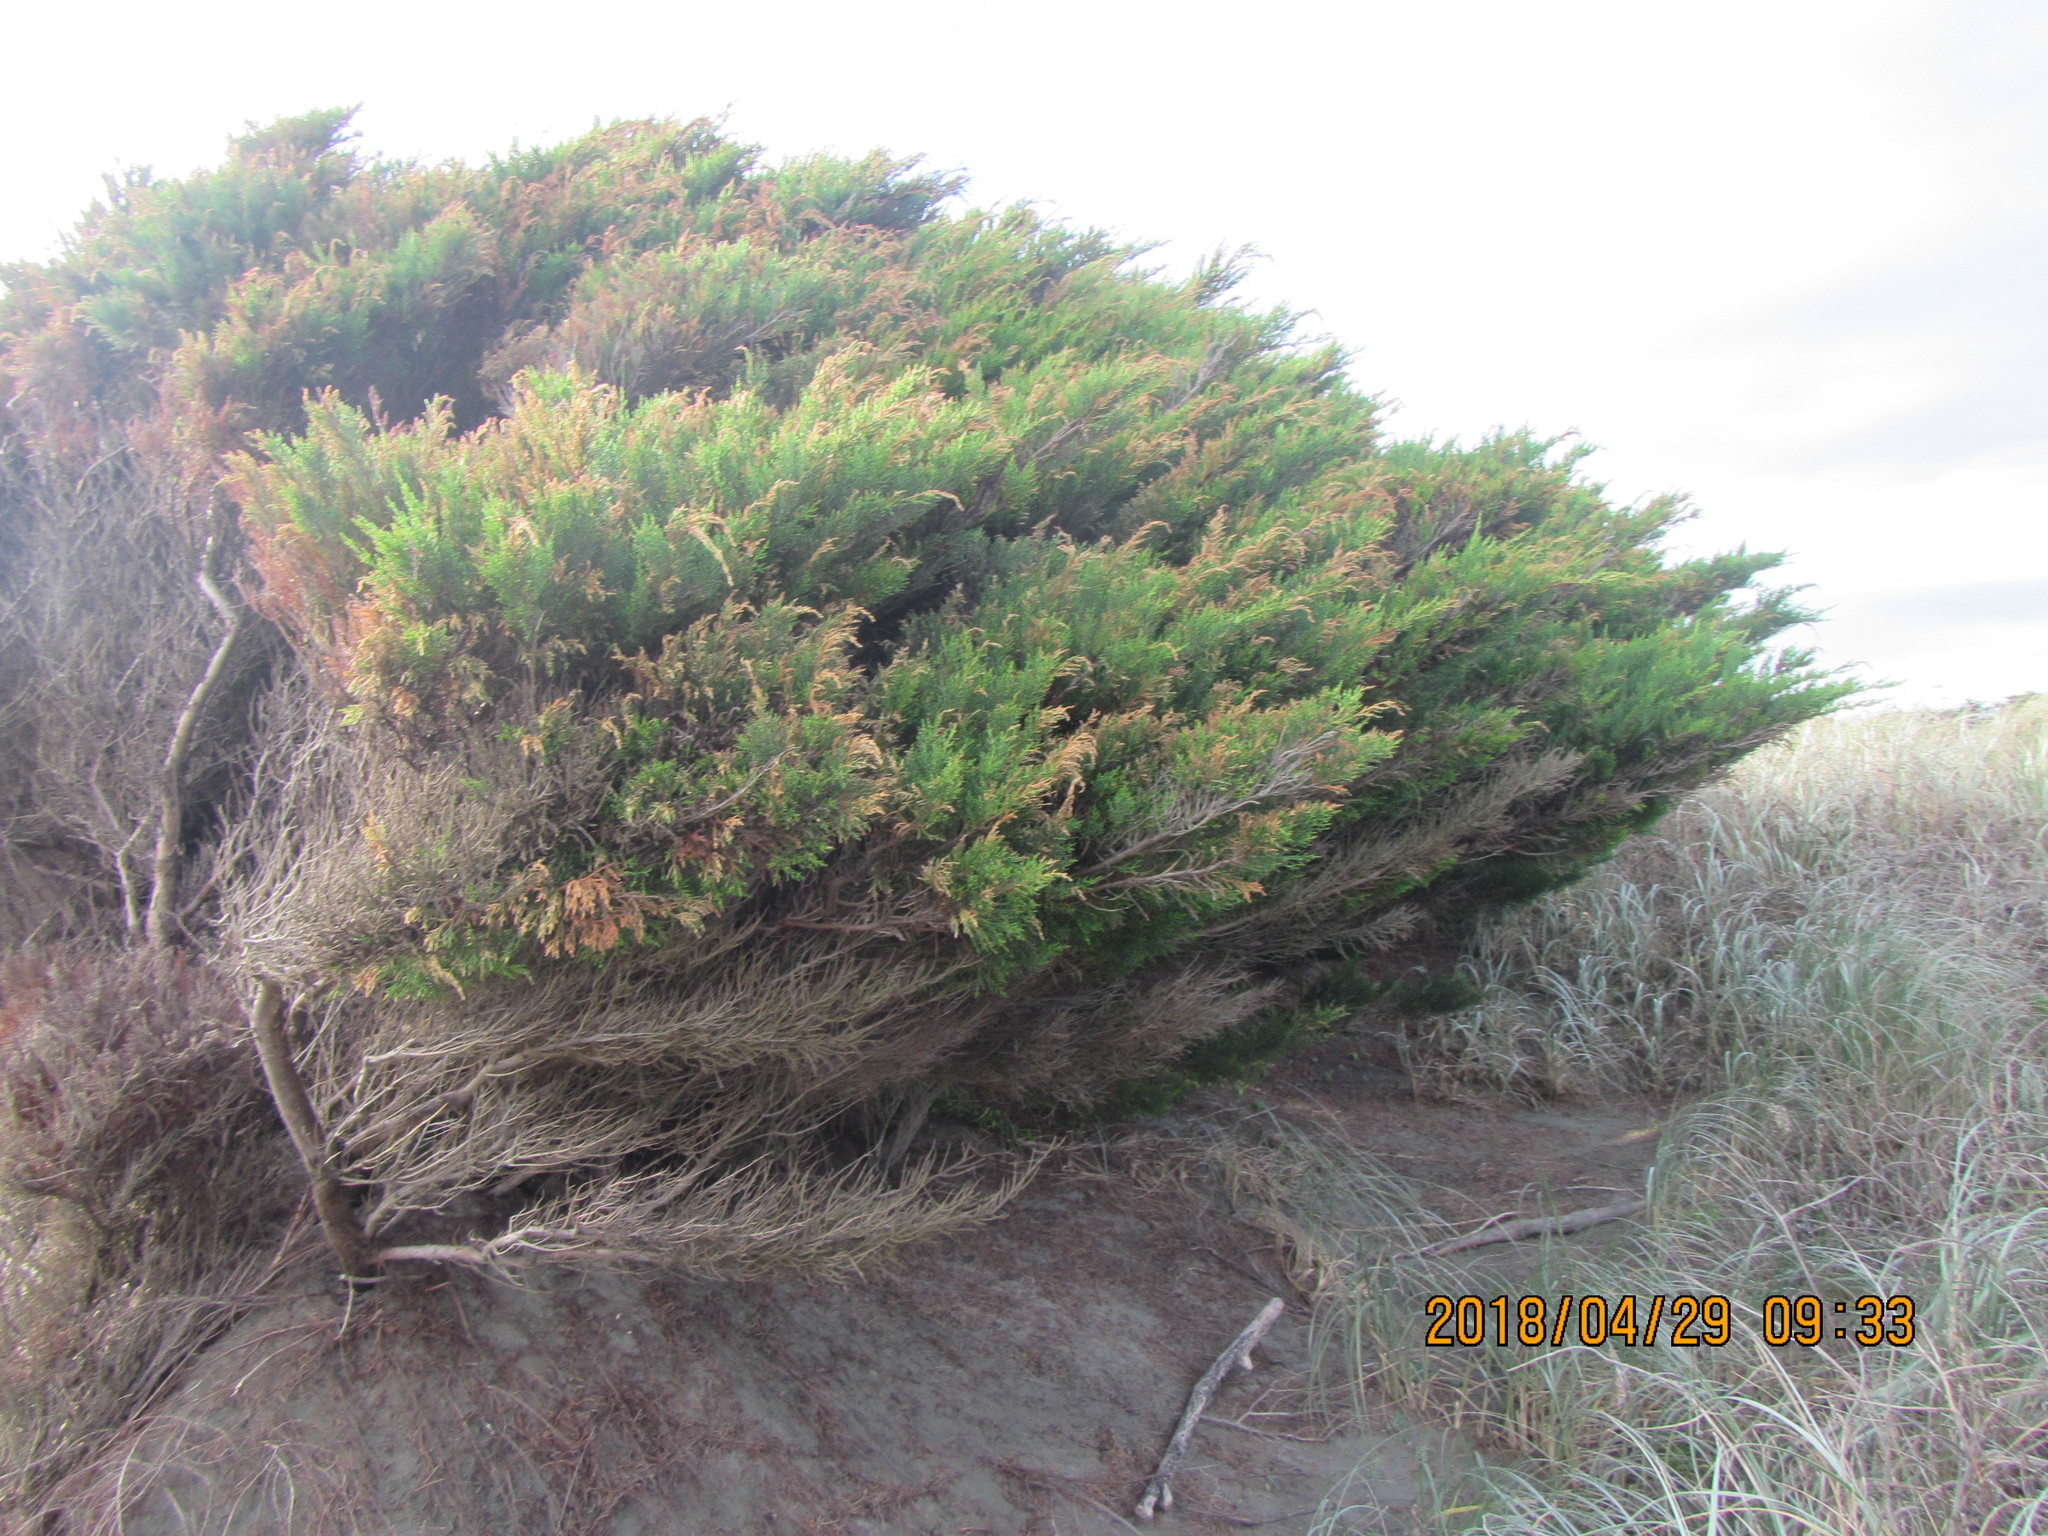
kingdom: Plantae
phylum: Tracheophyta
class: Pinopsida
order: Pinales
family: Cupressaceae
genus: Cupressus
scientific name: Cupressus macrocarpa
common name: Monterey cypress
